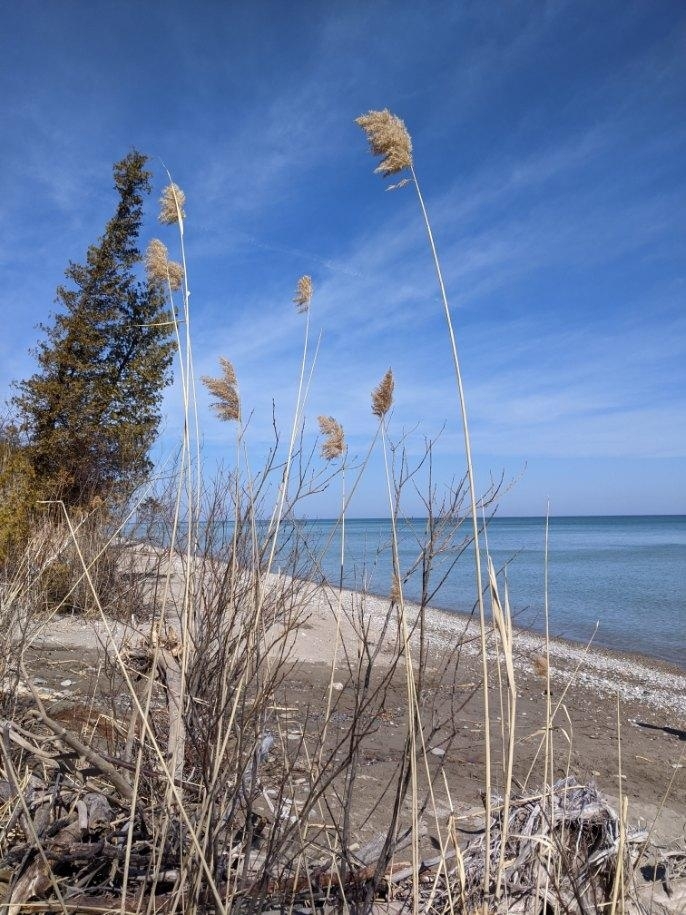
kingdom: Plantae
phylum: Tracheophyta
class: Liliopsida
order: Poales
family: Poaceae
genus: Phragmites
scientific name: Phragmites australis
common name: Common reed
